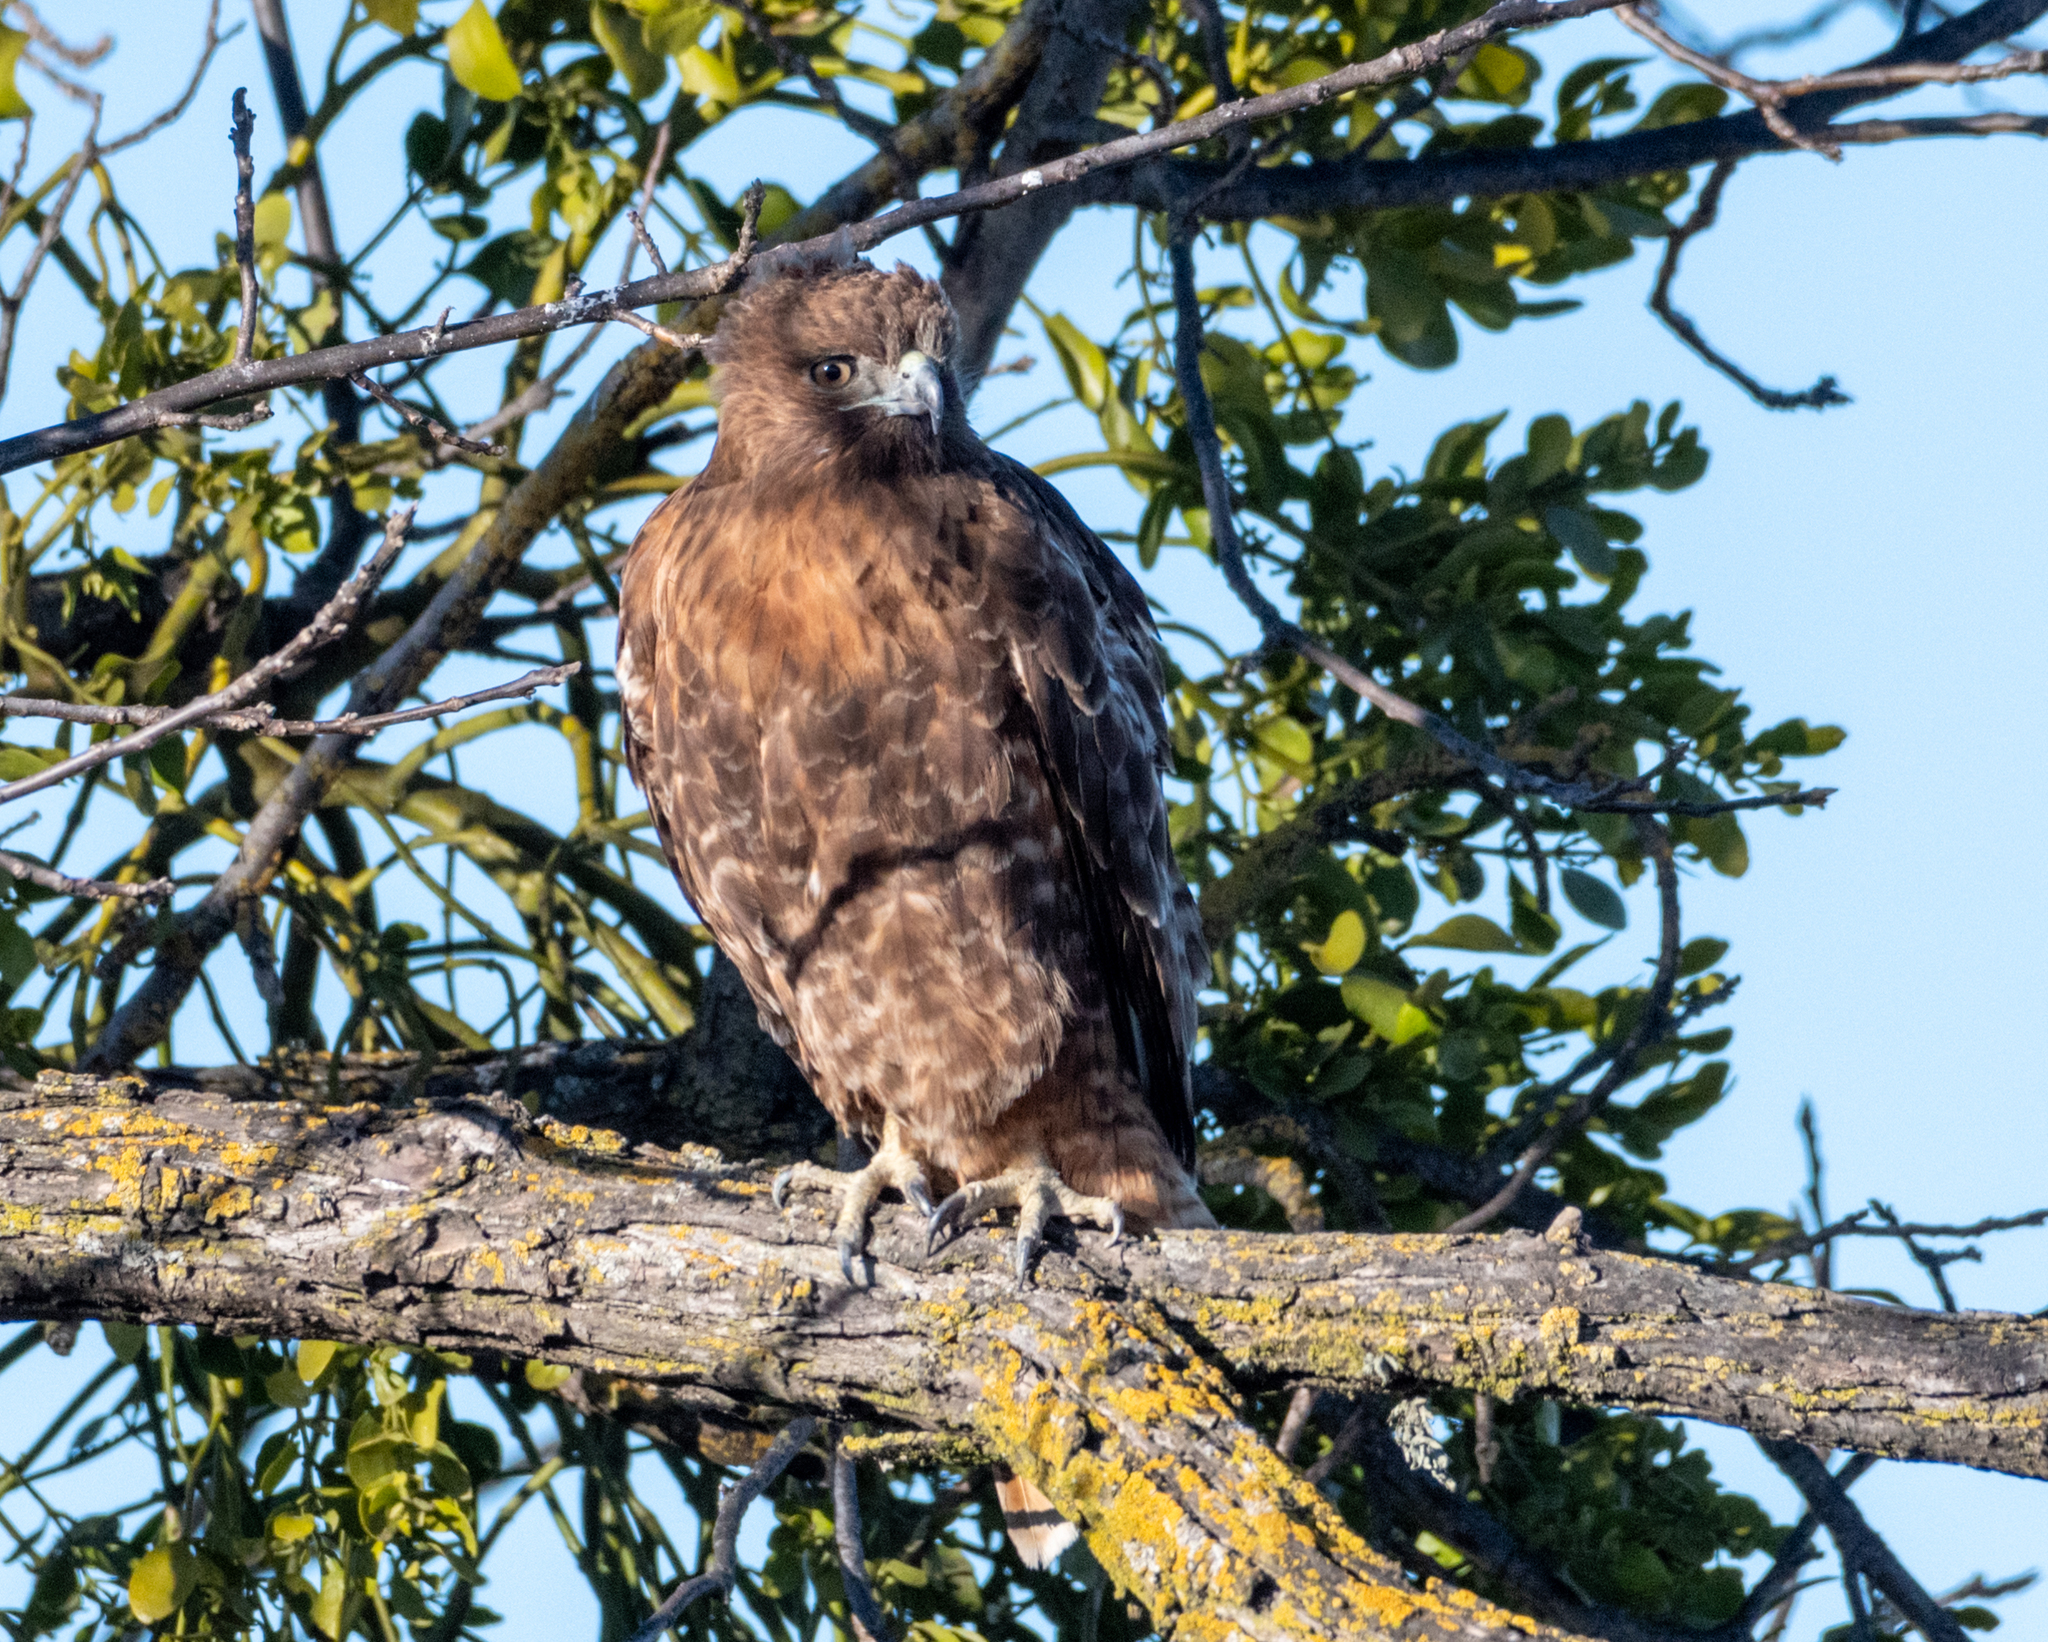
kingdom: Animalia
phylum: Chordata
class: Aves
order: Accipitriformes
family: Accipitridae
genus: Buteo
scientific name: Buteo jamaicensis
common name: Red-tailed hawk
